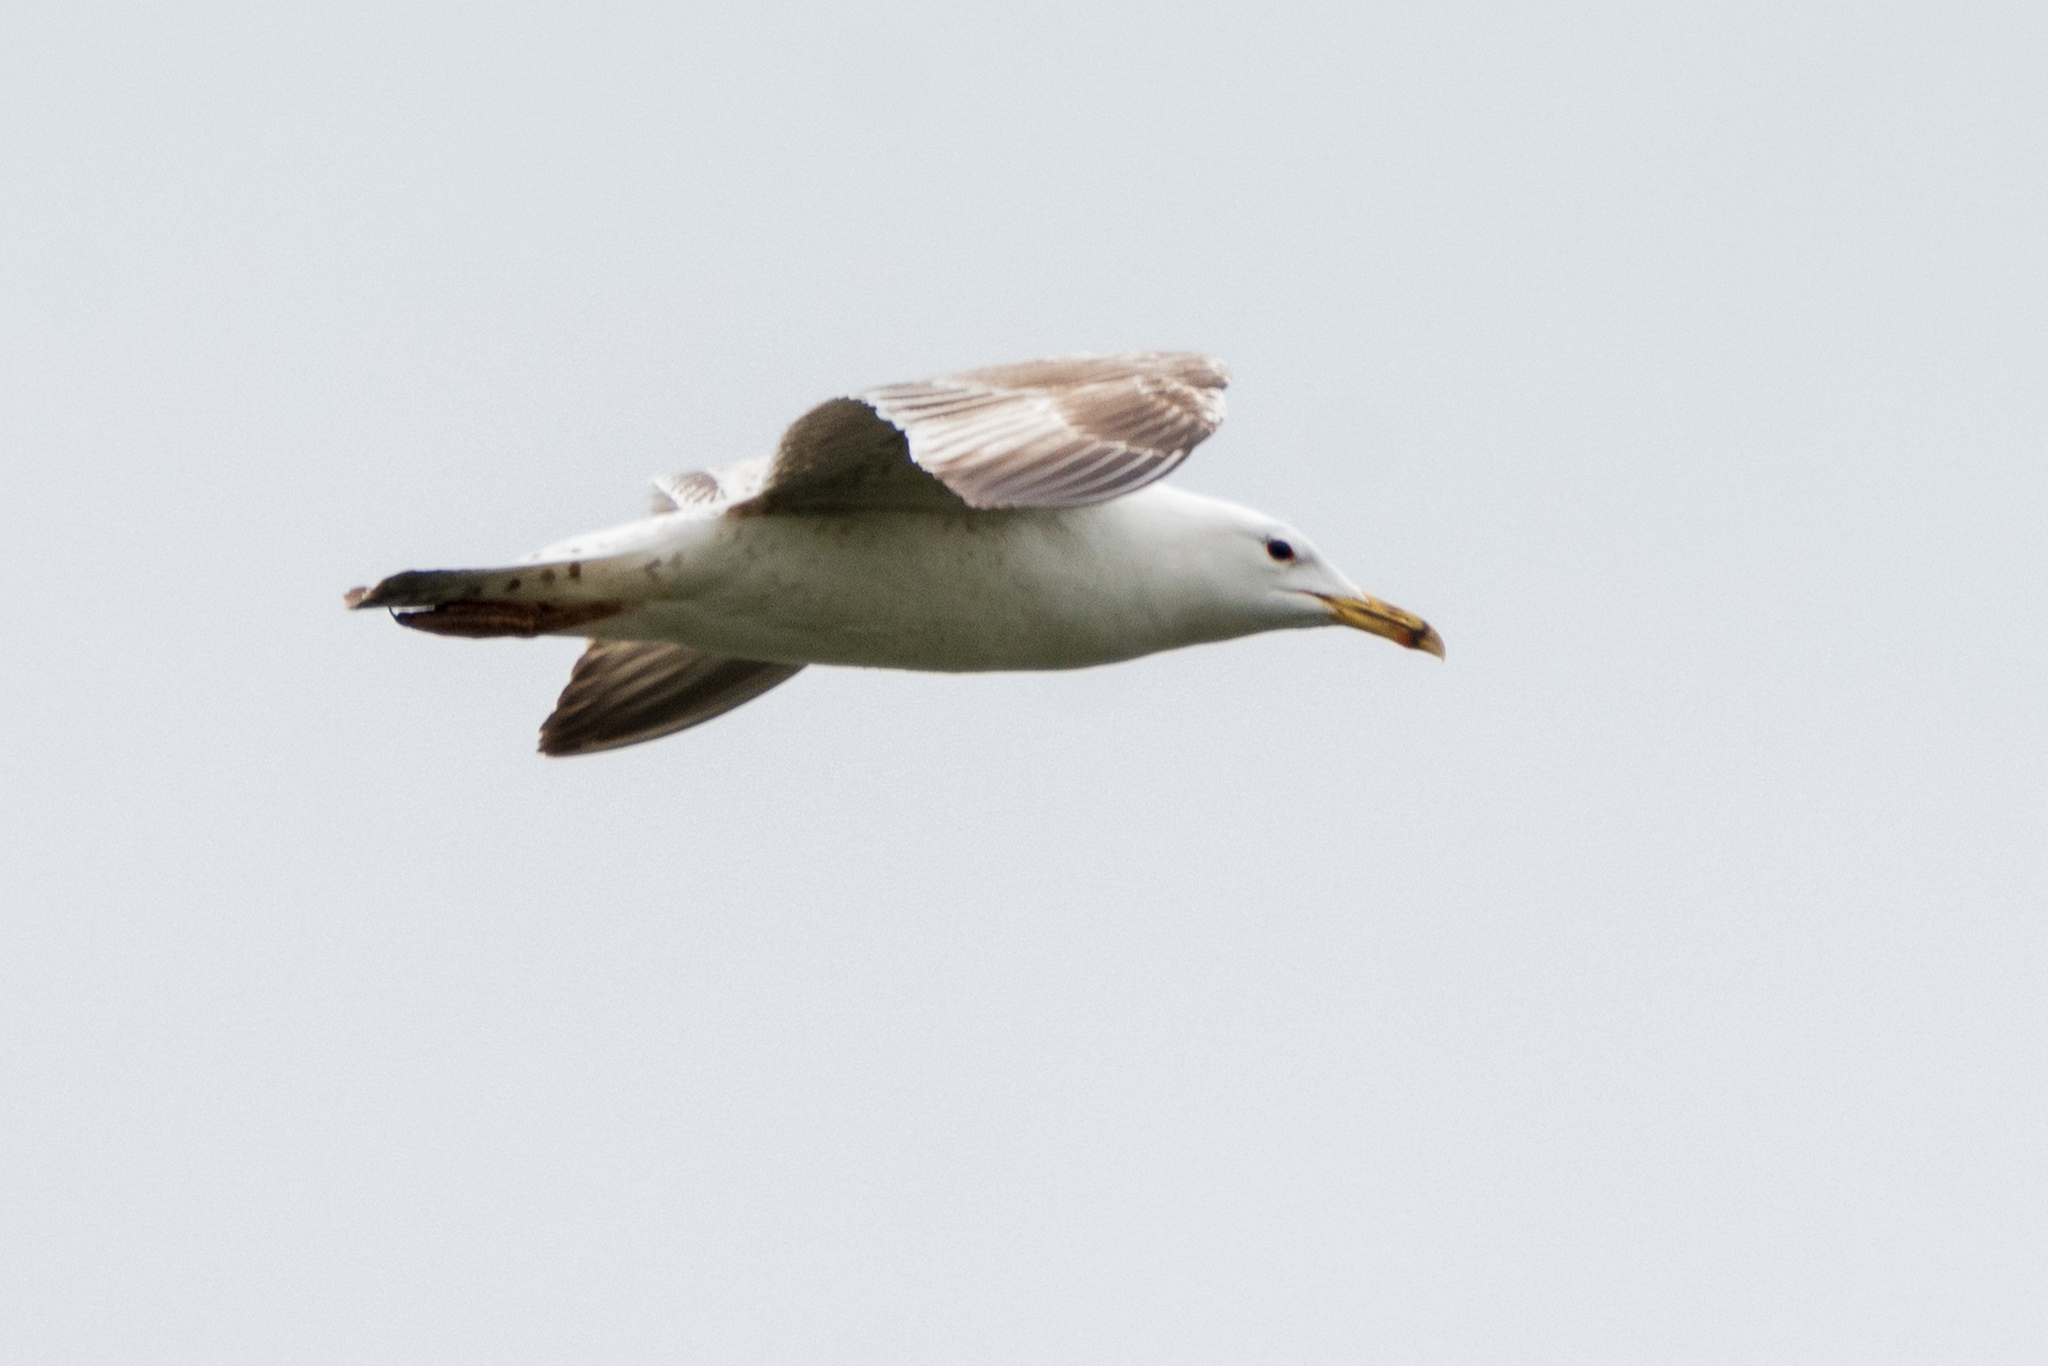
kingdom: Animalia
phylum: Chordata
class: Aves
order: Charadriiformes
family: Laridae
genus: Larus
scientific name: Larus cachinnans
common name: Caspian gull
